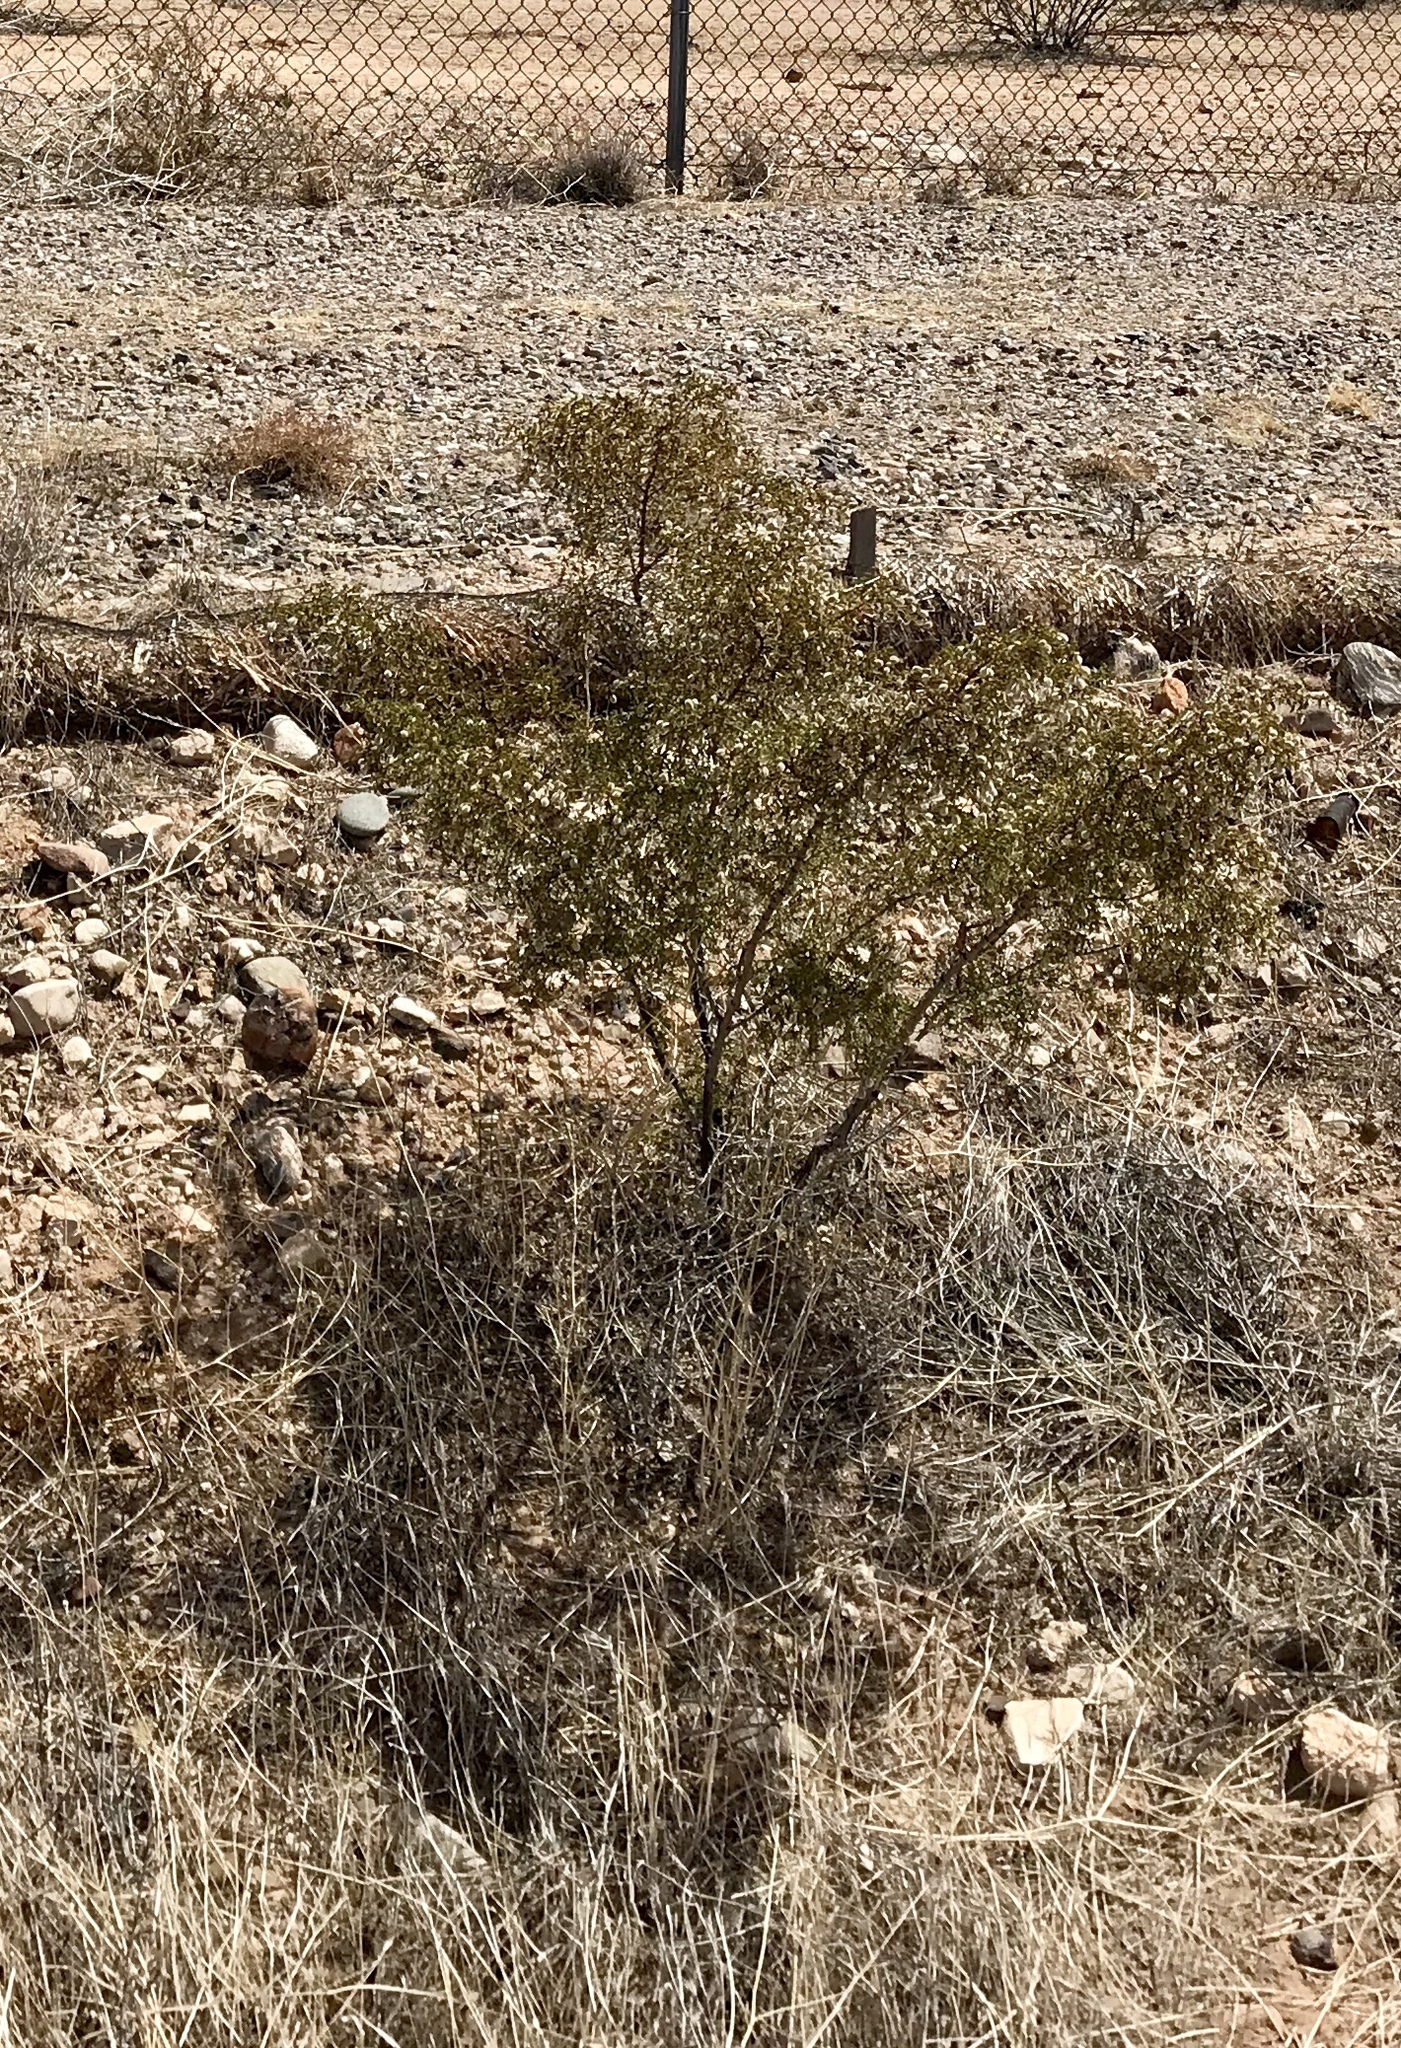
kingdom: Plantae
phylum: Tracheophyta
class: Magnoliopsida
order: Zygophyllales
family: Zygophyllaceae
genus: Larrea
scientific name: Larrea tridentata
